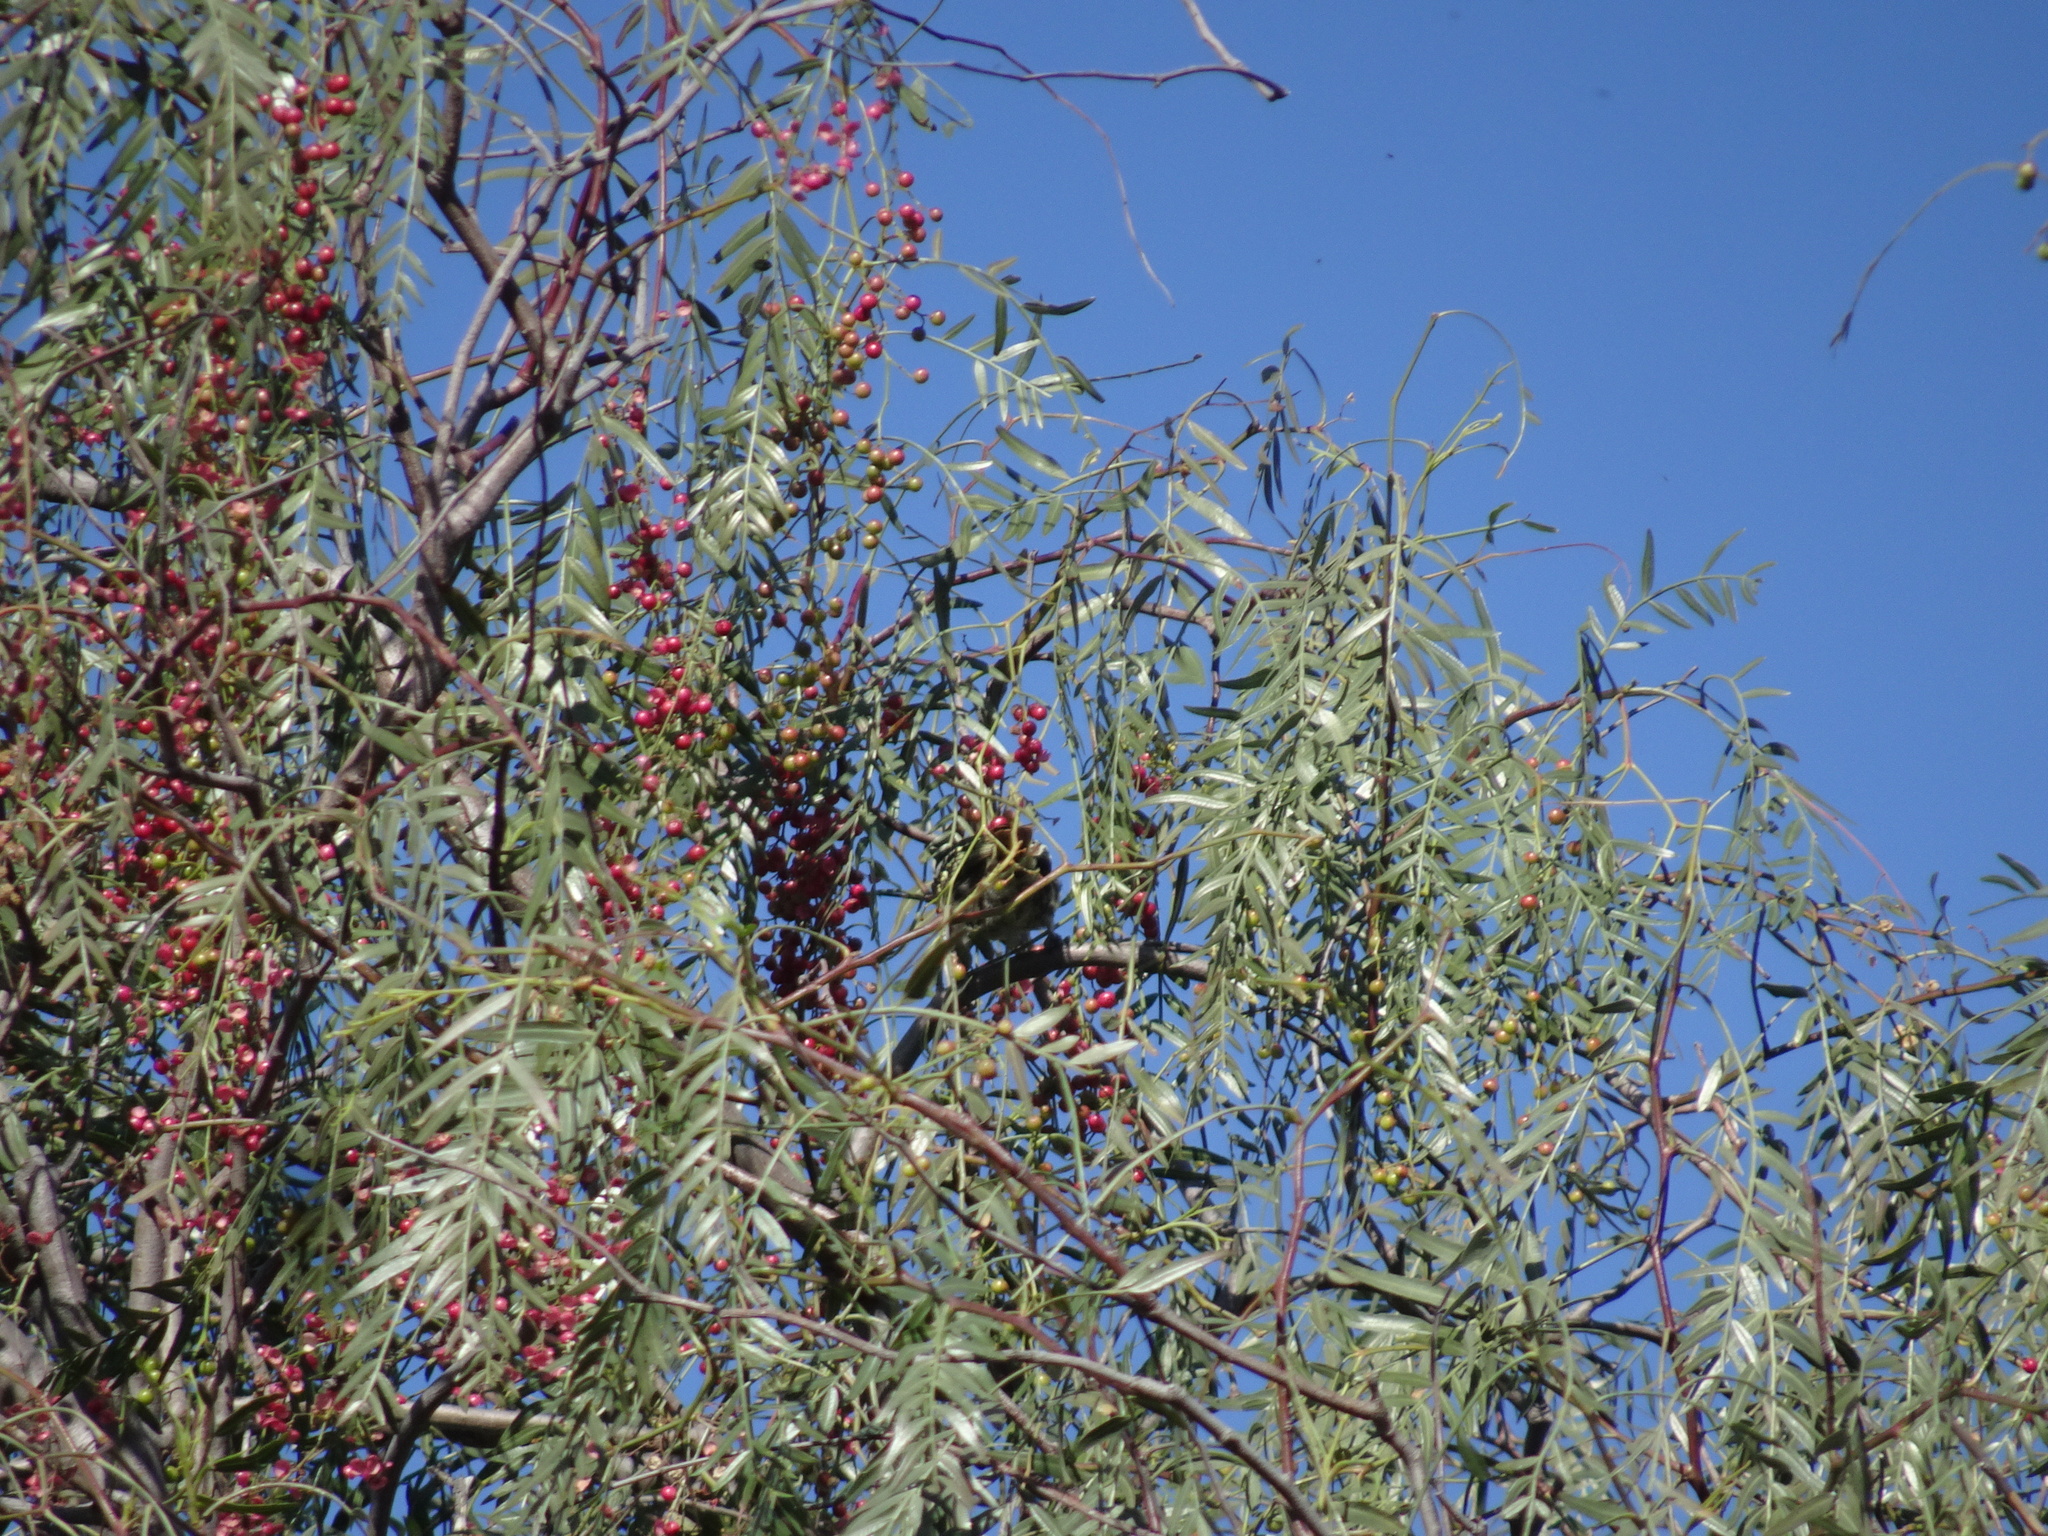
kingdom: Plantae
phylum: Tracheophyta
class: Magnoliopsida
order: Sapindales
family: Anacardiaceae
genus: Schinus
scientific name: Schinus molle
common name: Peruvian peppertree
